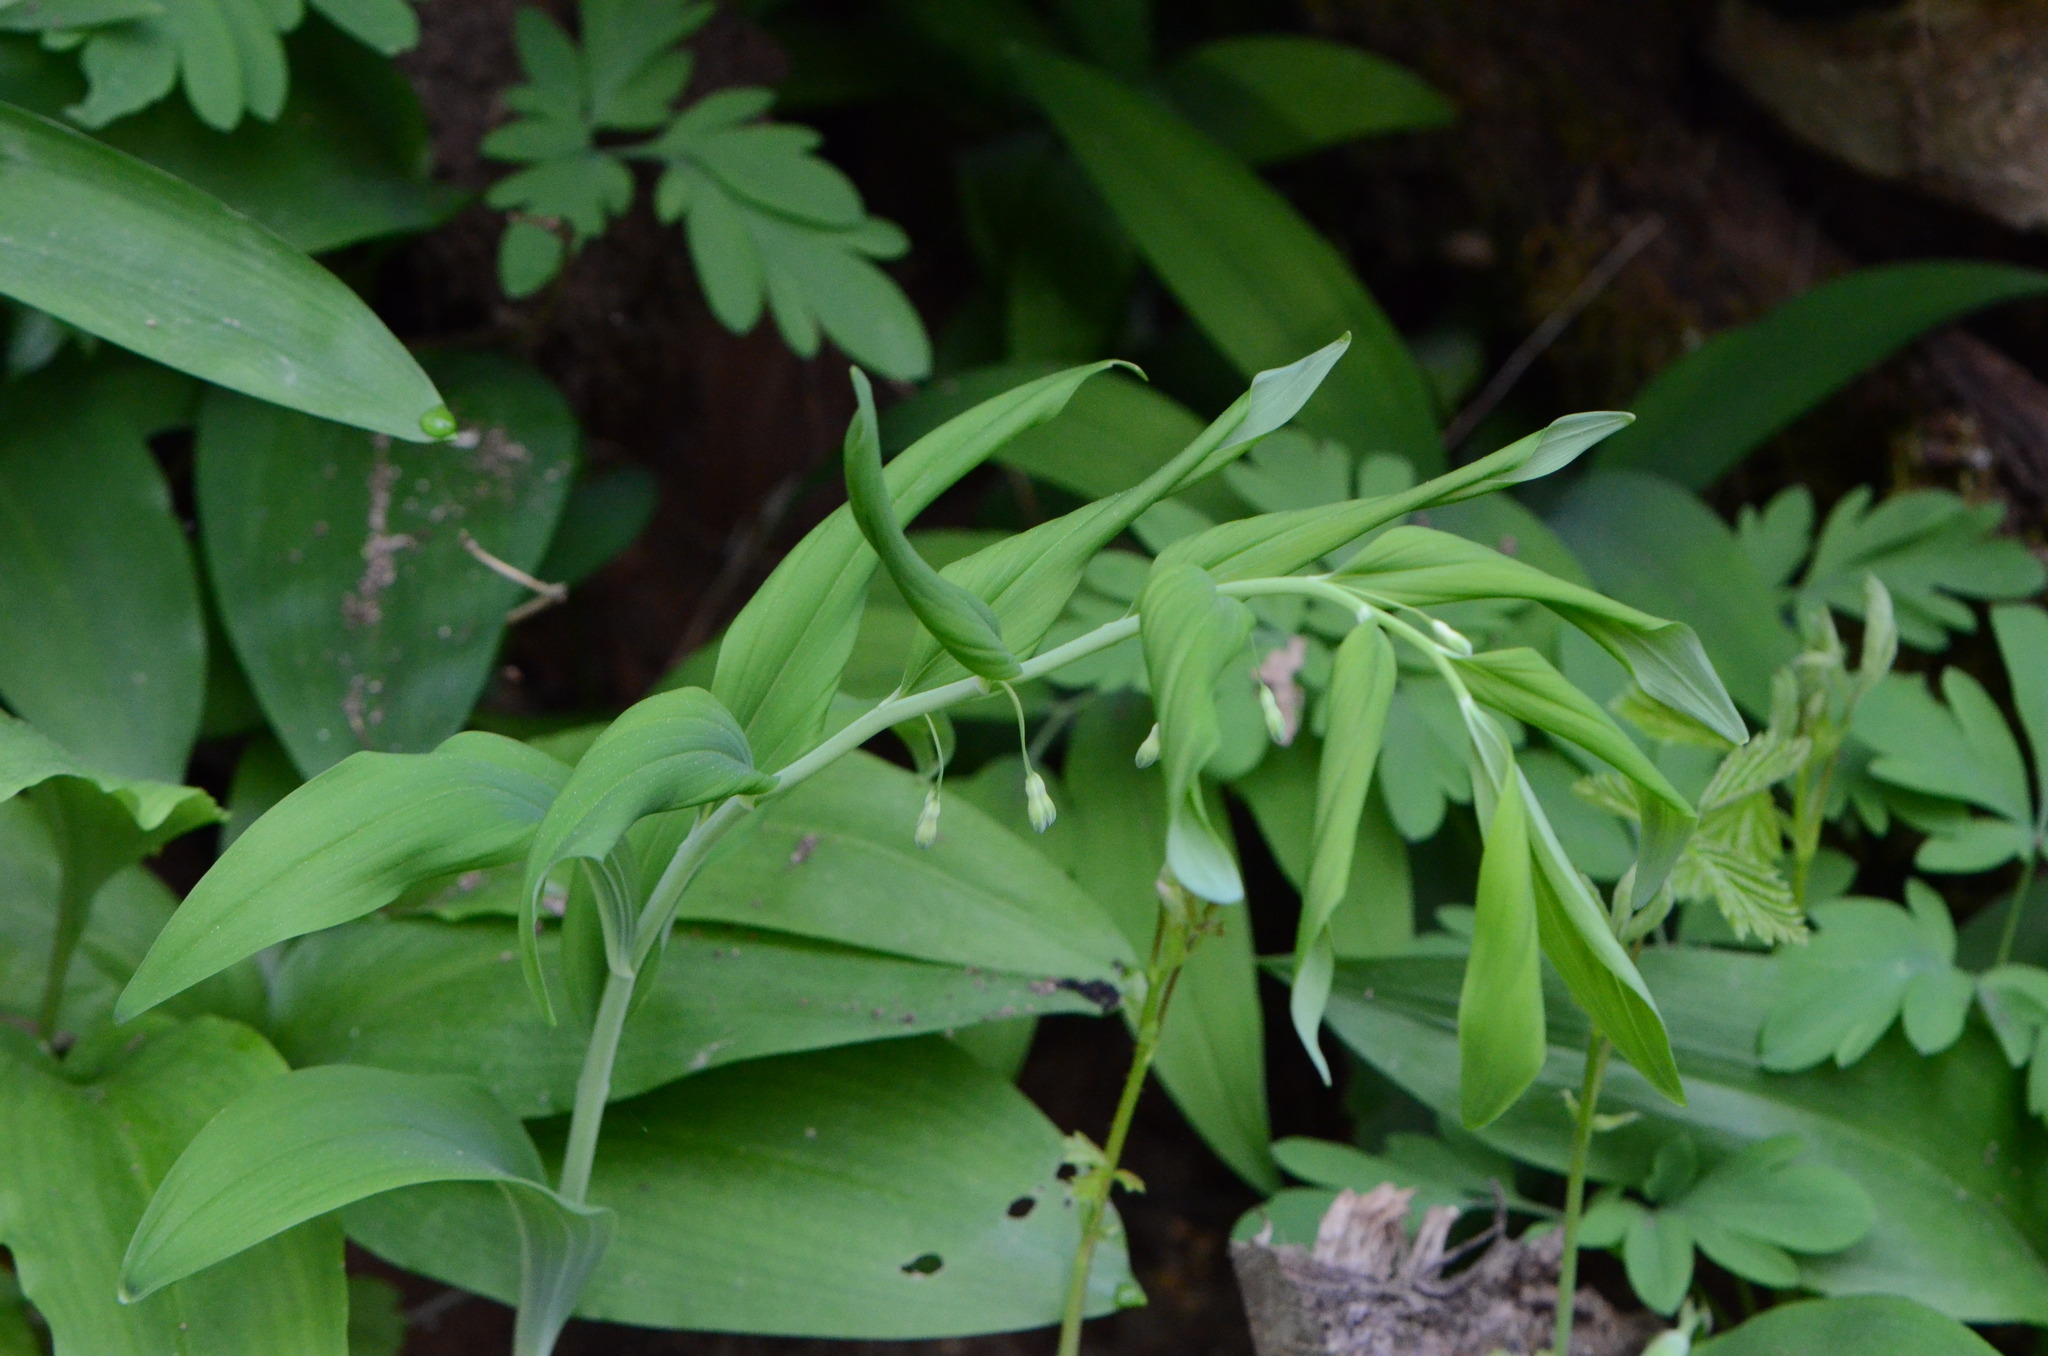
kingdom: Plantae
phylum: Tracheophyta
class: Liliopsida
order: Asparagales
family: Asparagaceae
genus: Polygonatum
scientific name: Polygonatum multiflorum
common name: Solomon's-seal
